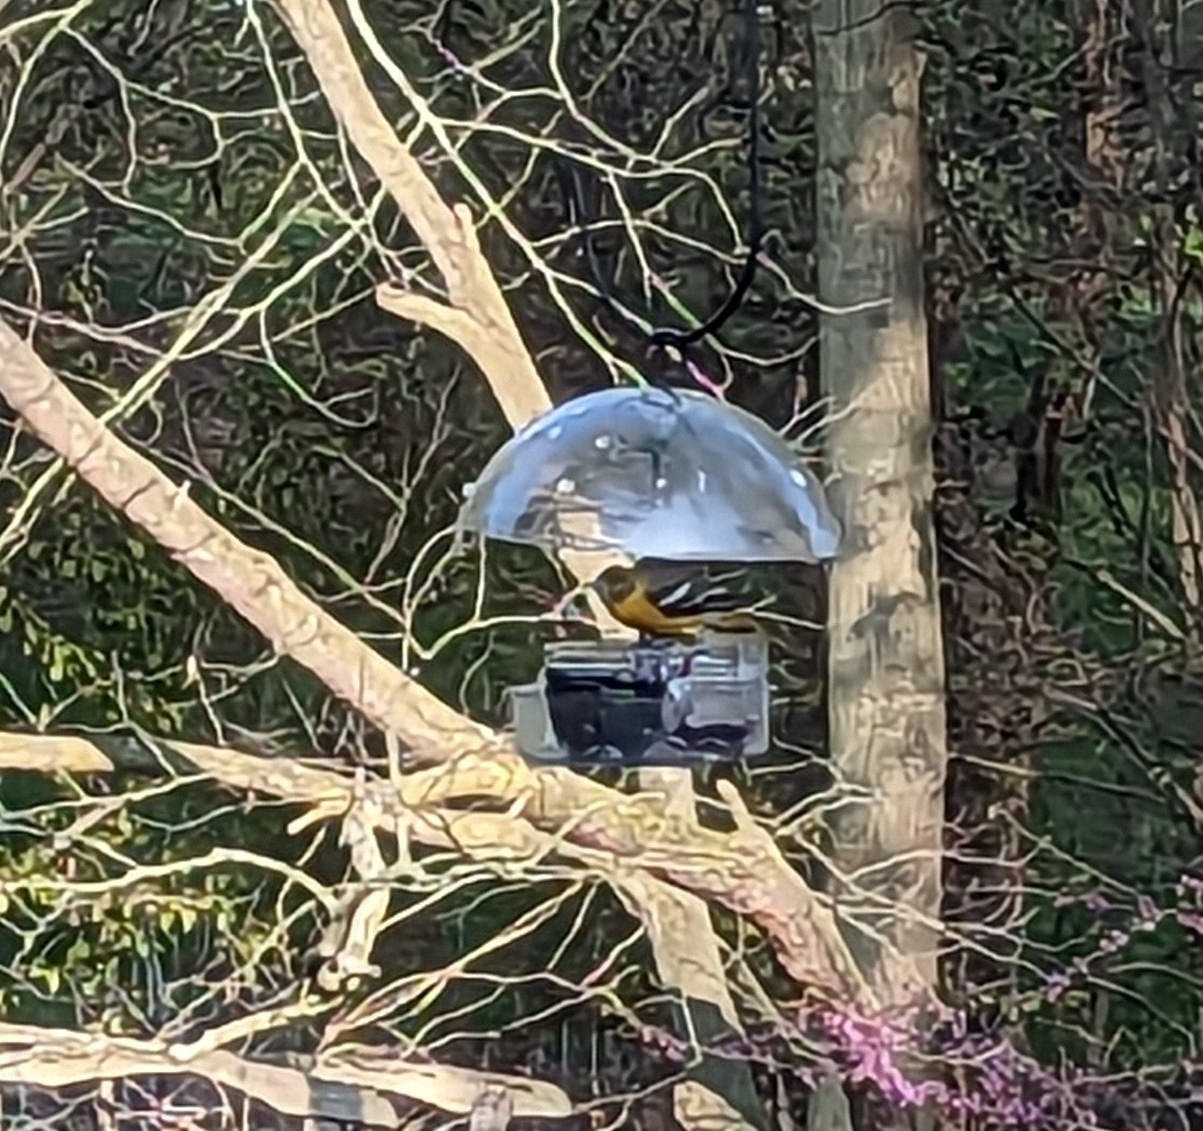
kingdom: Animalia
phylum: Chordata
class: Aves
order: Passeriformes
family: Icteridae
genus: Icterus
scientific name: Icterus galbula
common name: Baltimore oriole
